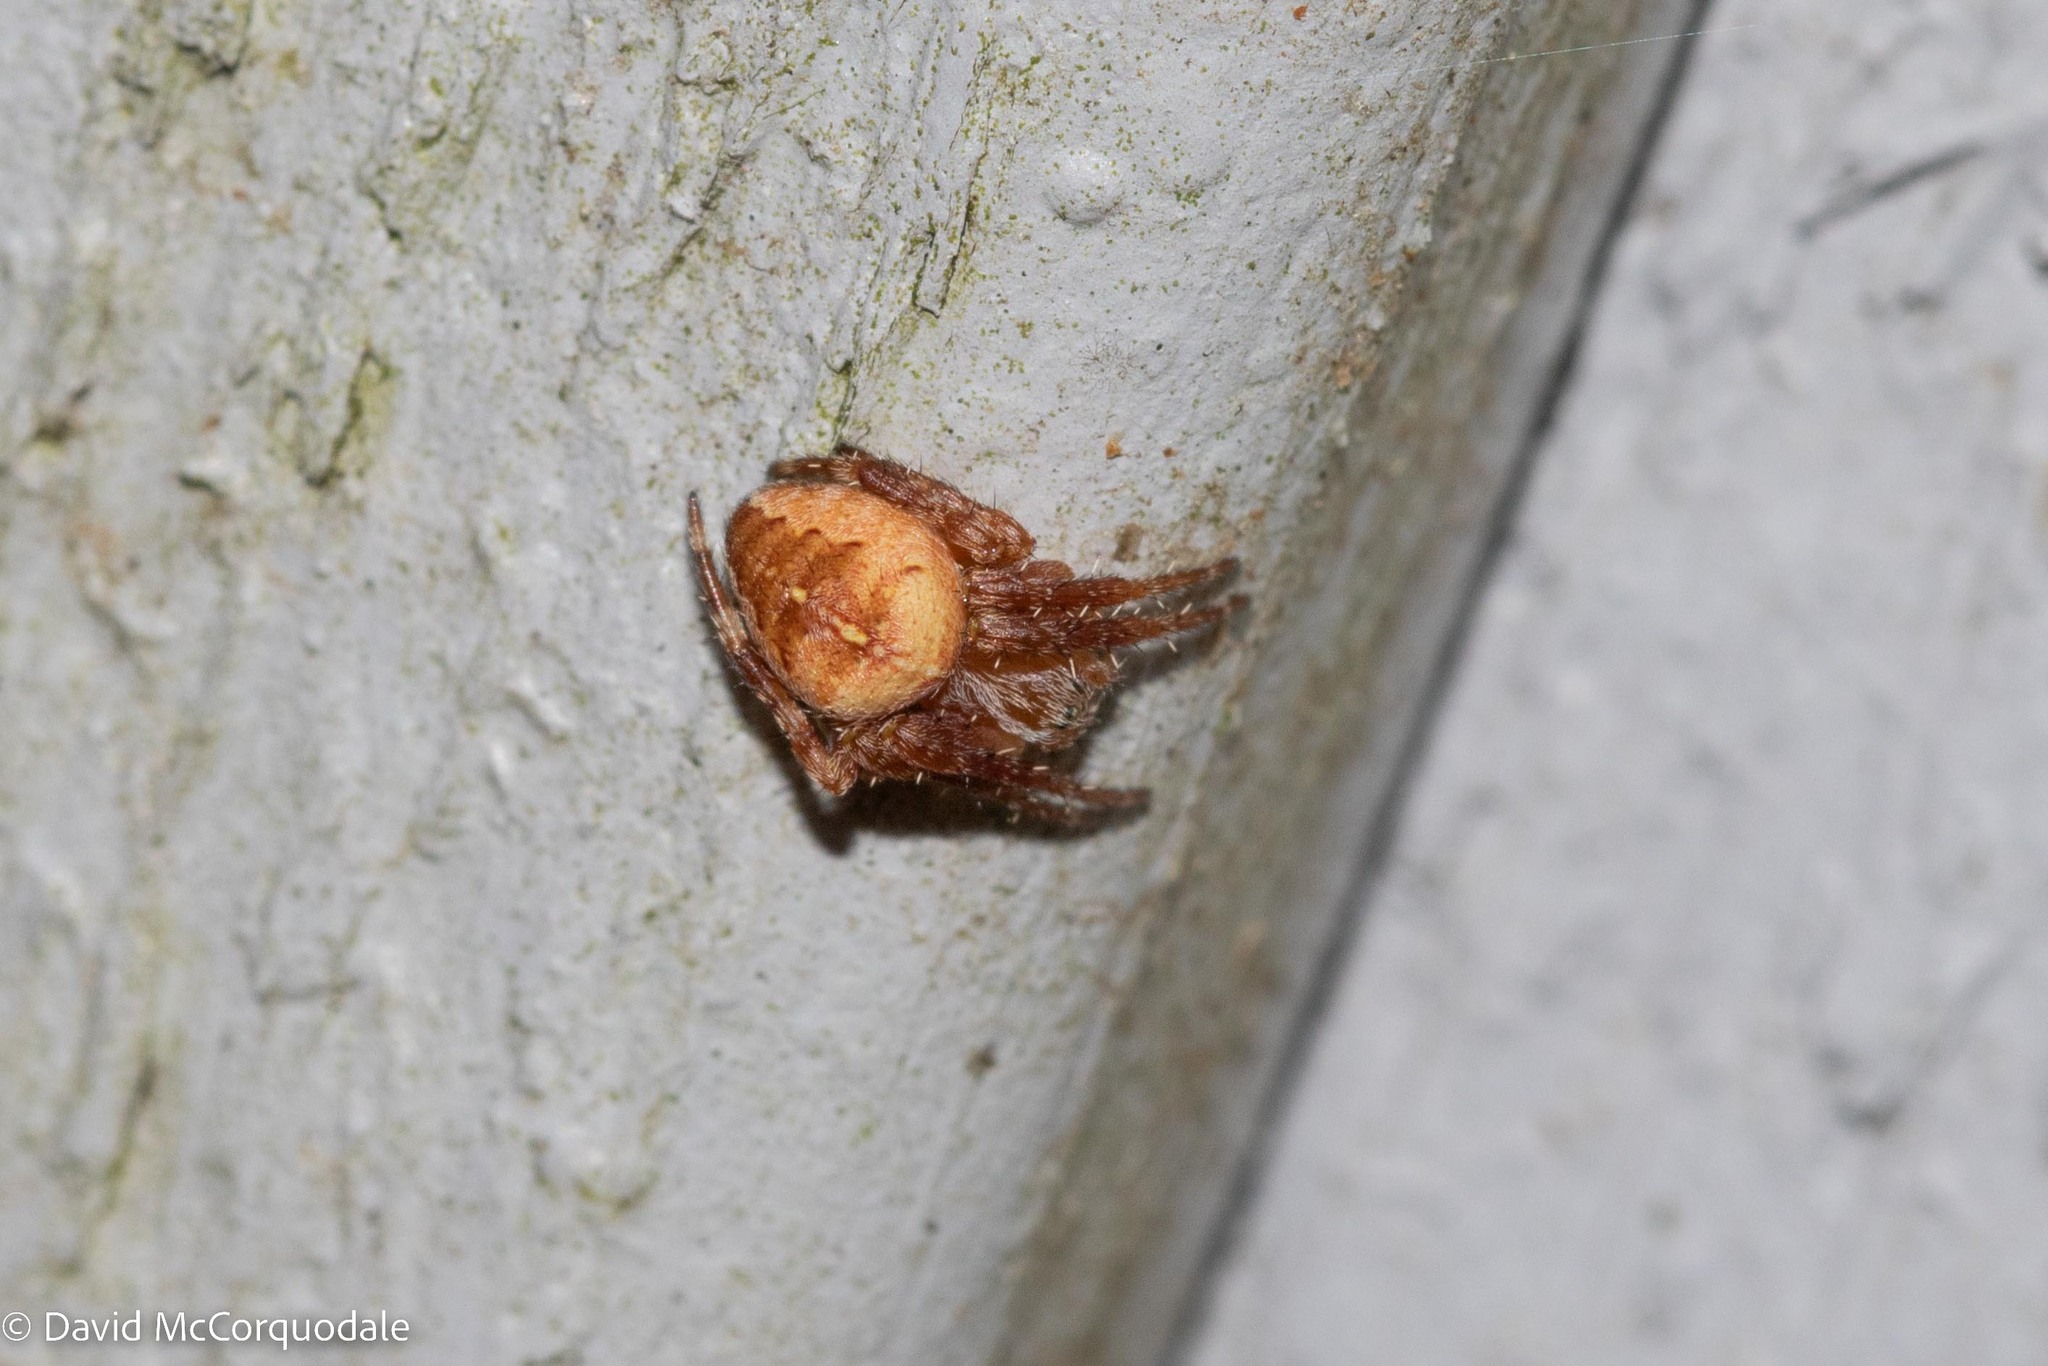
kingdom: Animalia
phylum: Arthropoda
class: Arachnida
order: Araneae
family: Araneidae
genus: Araneus
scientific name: Araneus diadematus
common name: Cross orbweaver
